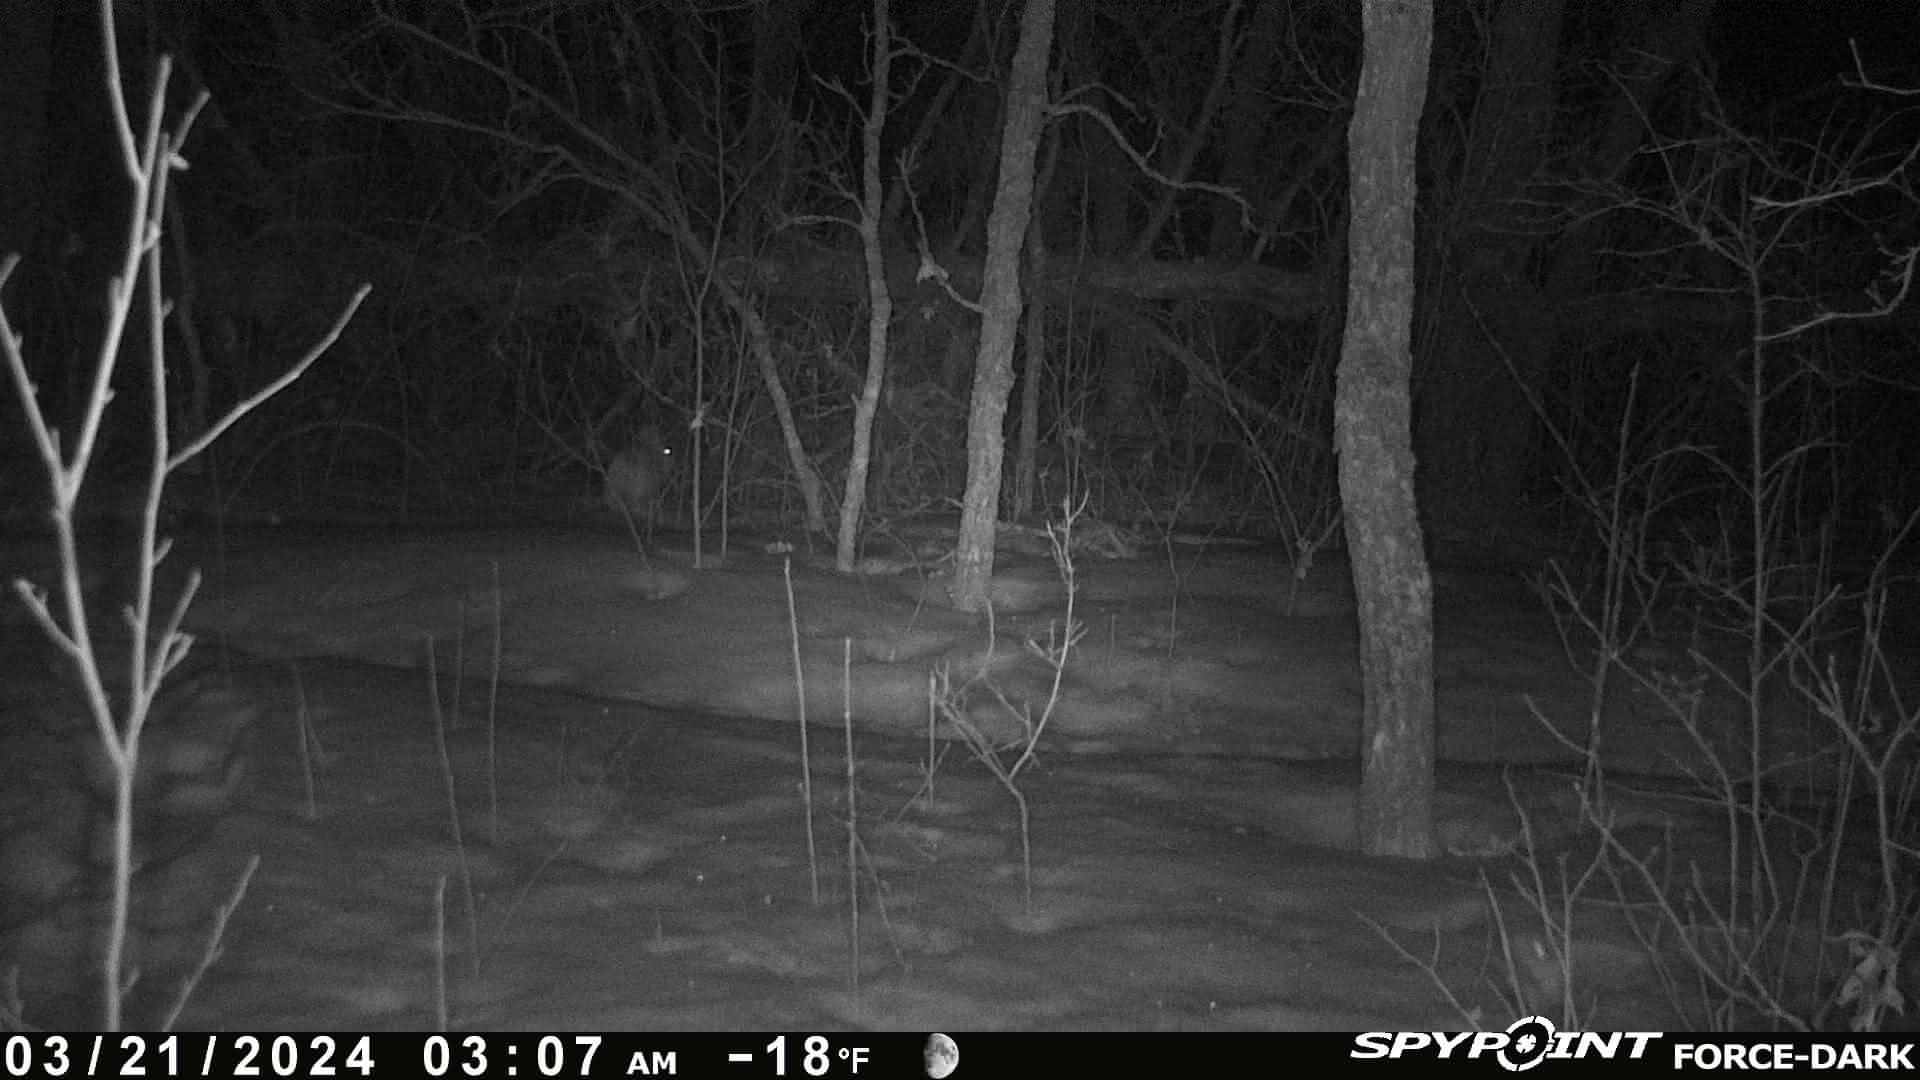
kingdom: Animalia
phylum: Chordata
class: Mammalia
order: Lagomorpha
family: Leporidae
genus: Lepus
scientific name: Lepus americanus
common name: Snowshoe hare
